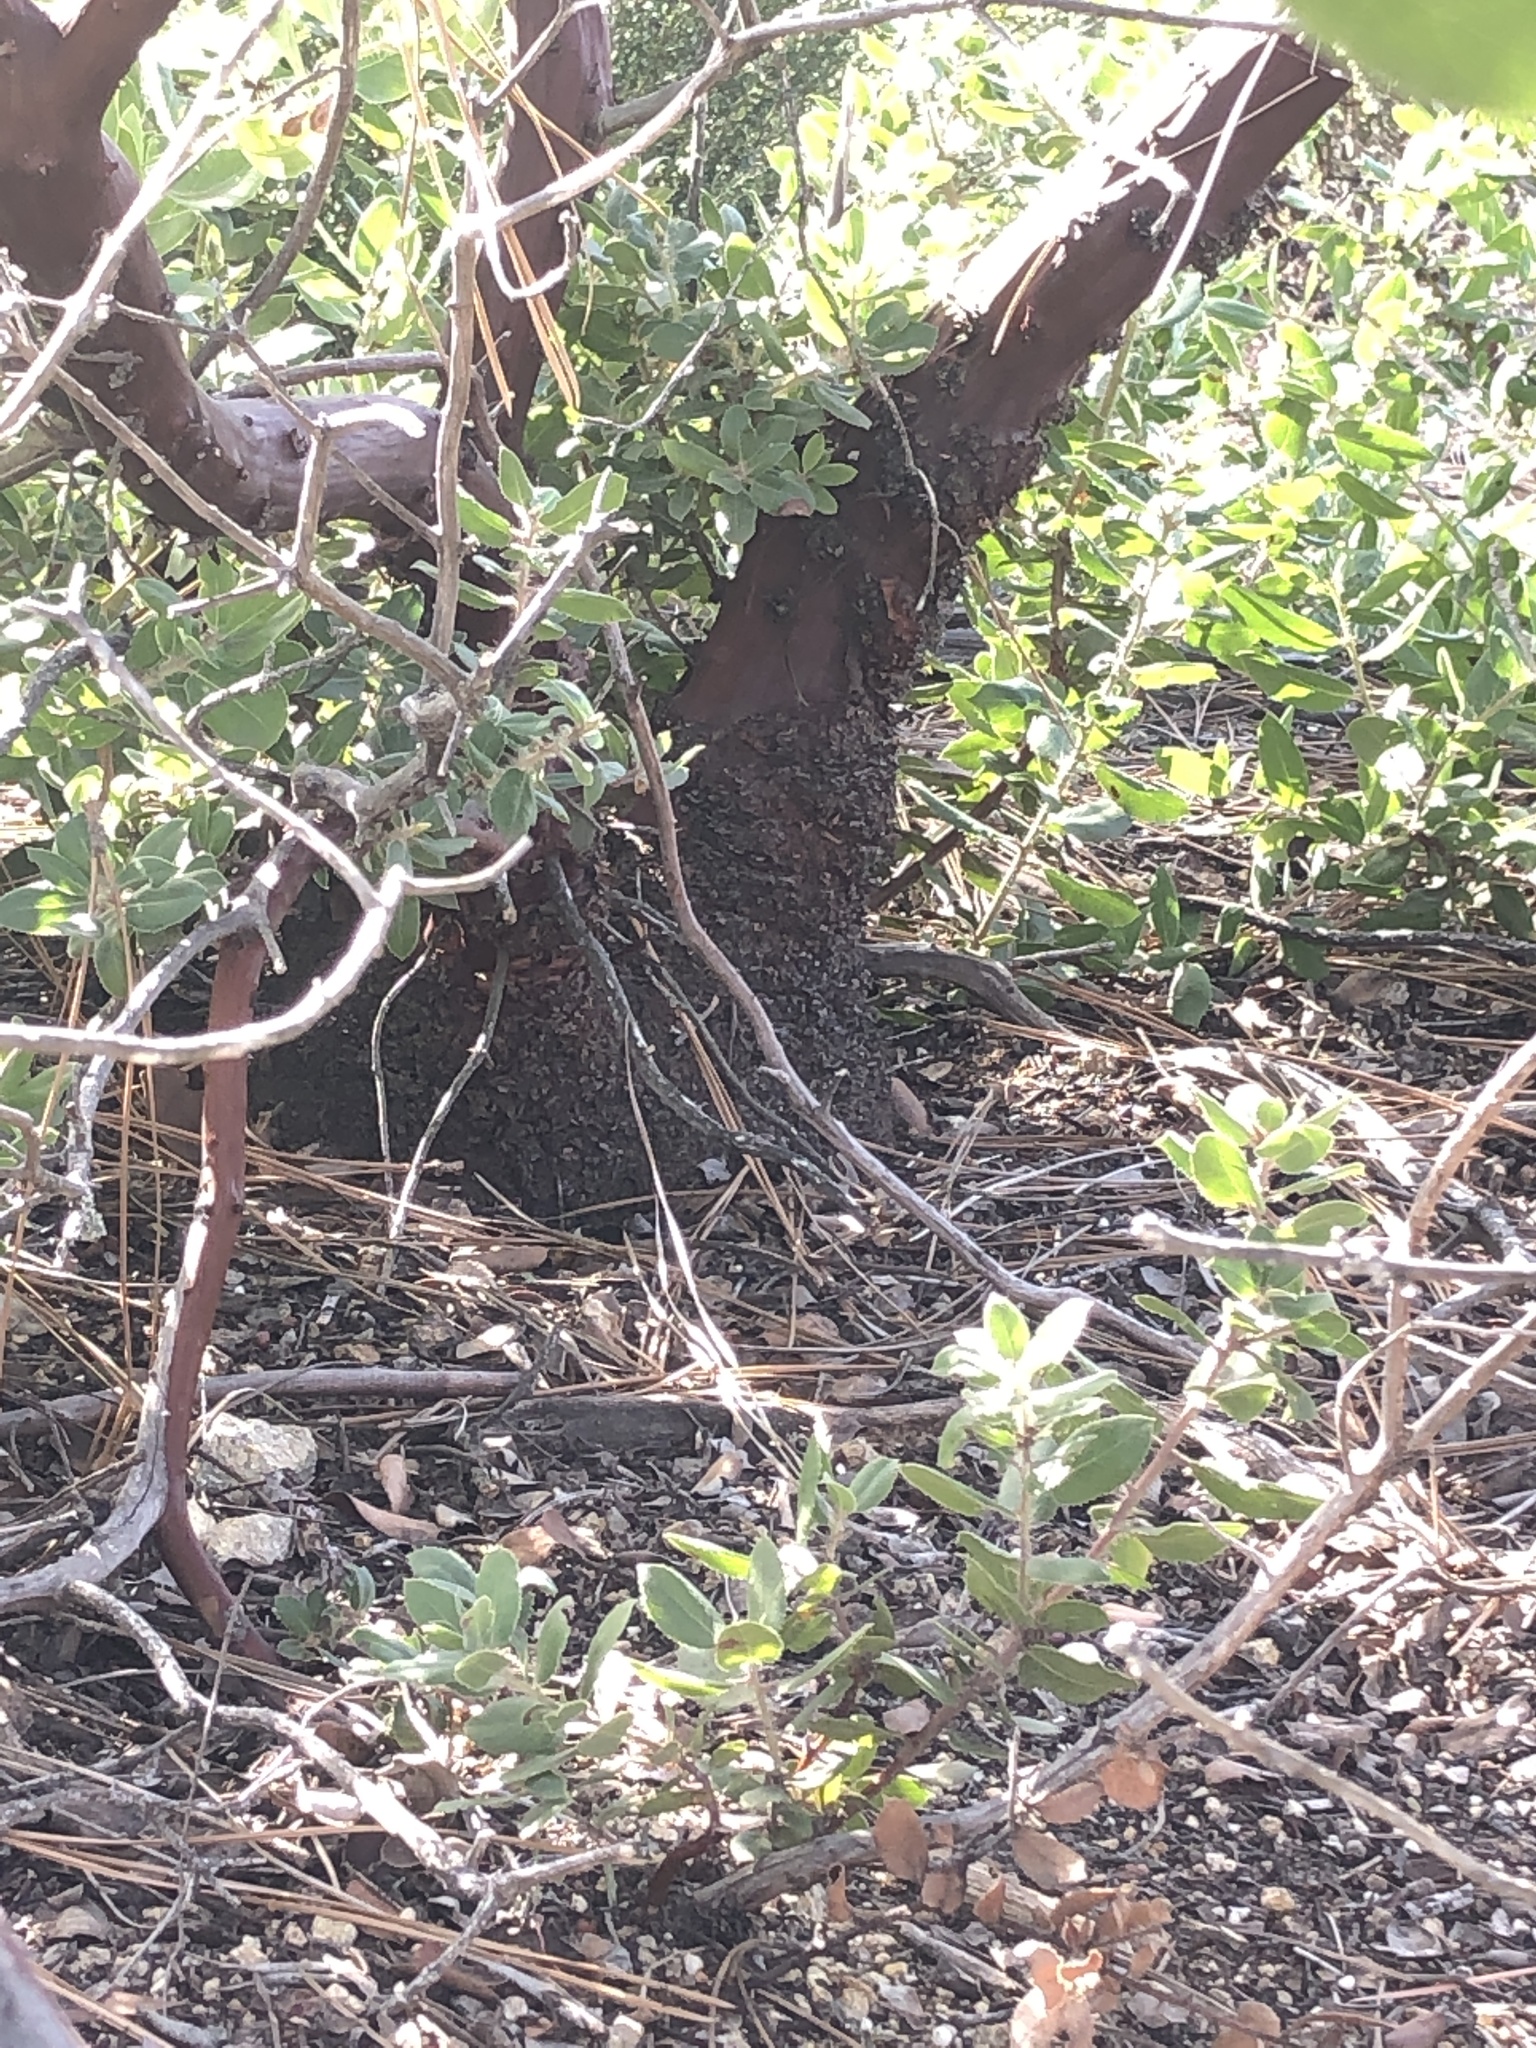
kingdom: Plantae
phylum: Tracheophyta
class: Magnoliopsida
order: Ericales
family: Ericaceae
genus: Arctostaphylos
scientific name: Arctostaphylos crustacea
